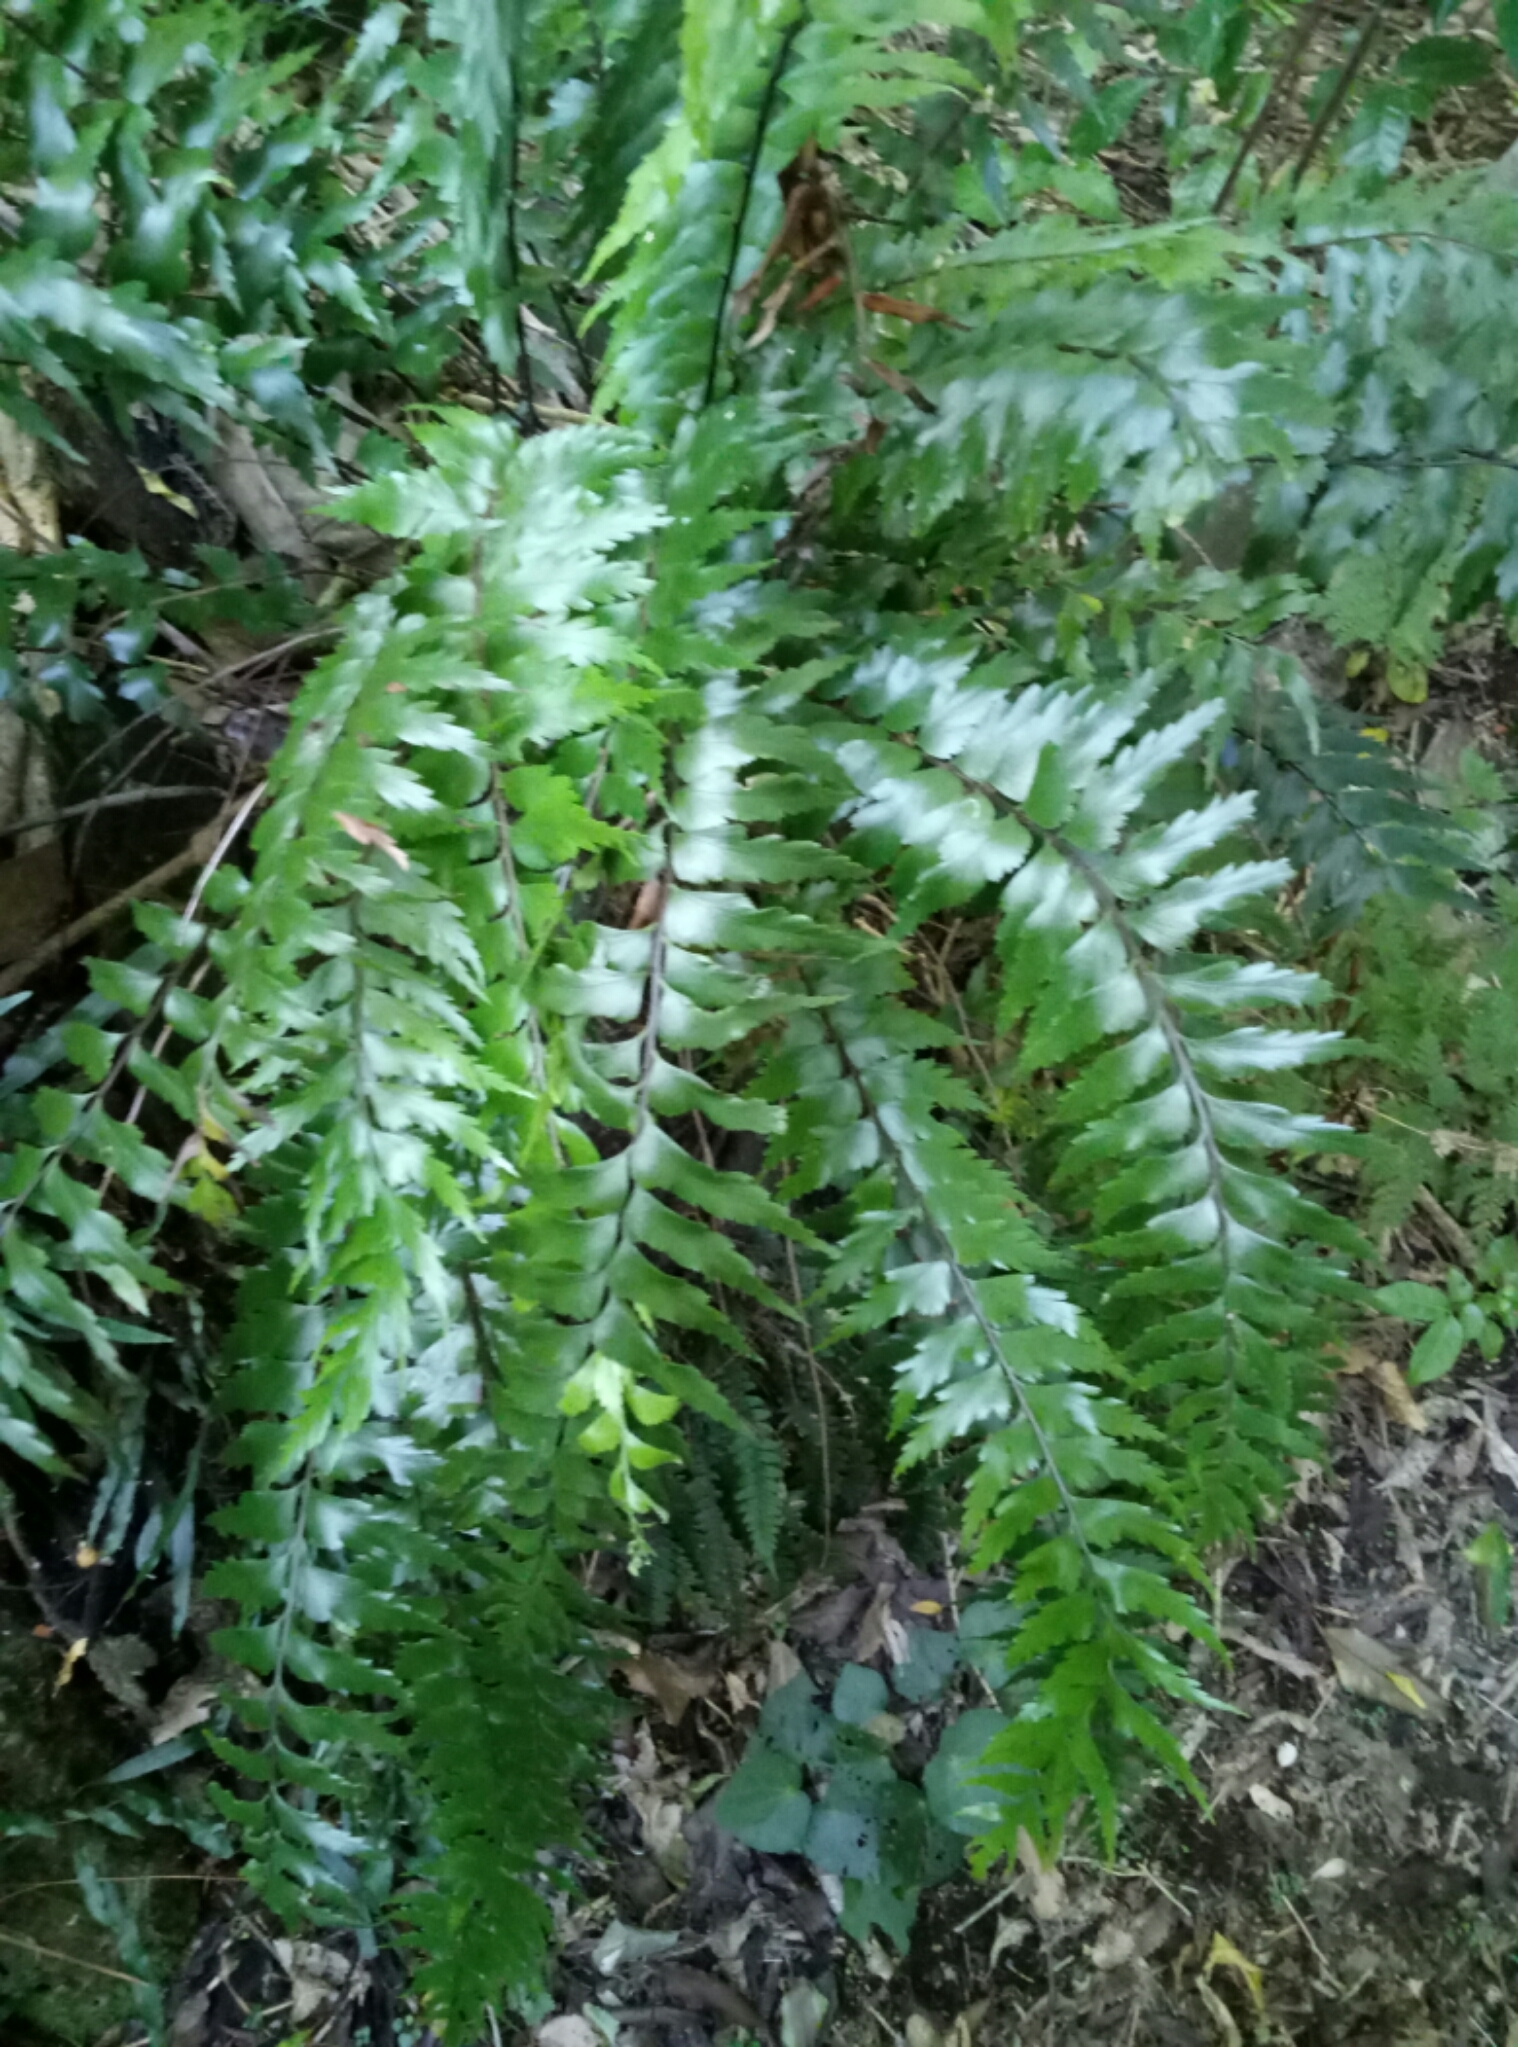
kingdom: Plantae
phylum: Tracheophyta
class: Polypodiopsida
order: Polypodiales
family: Aspleniaceae
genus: Asplenium
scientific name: Asplenium polyodon
